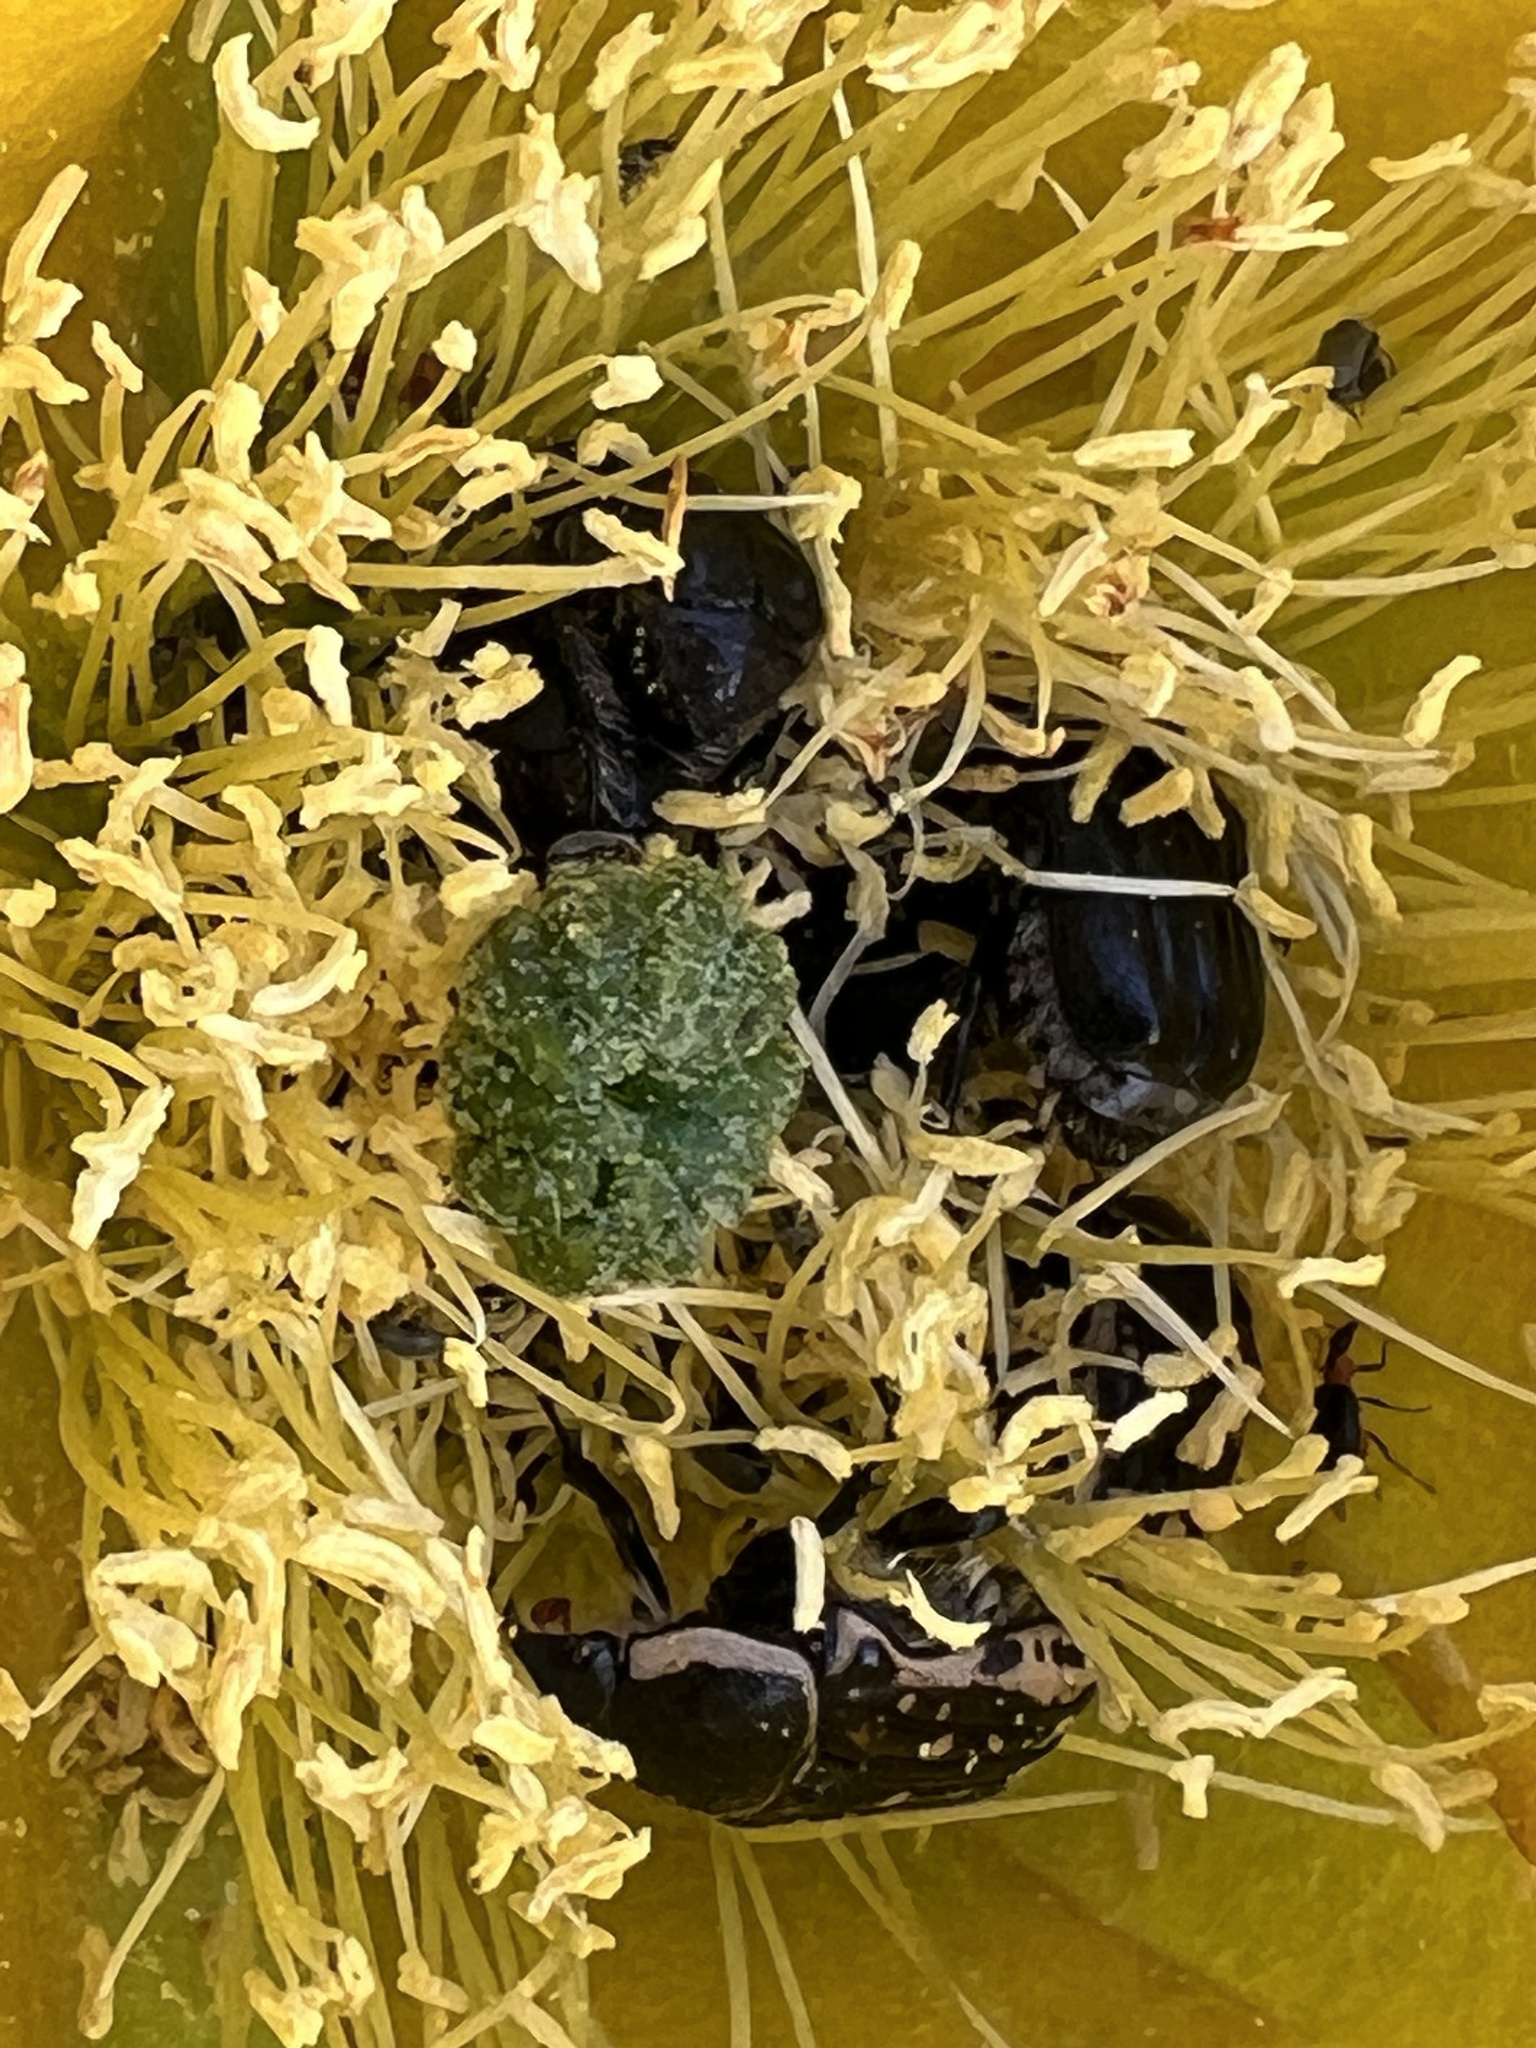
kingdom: Animalia
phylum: Arthropoda
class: Insecta
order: Coleoptera
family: Scarabaeidae
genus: Euphoria
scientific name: Euphoria kernii
